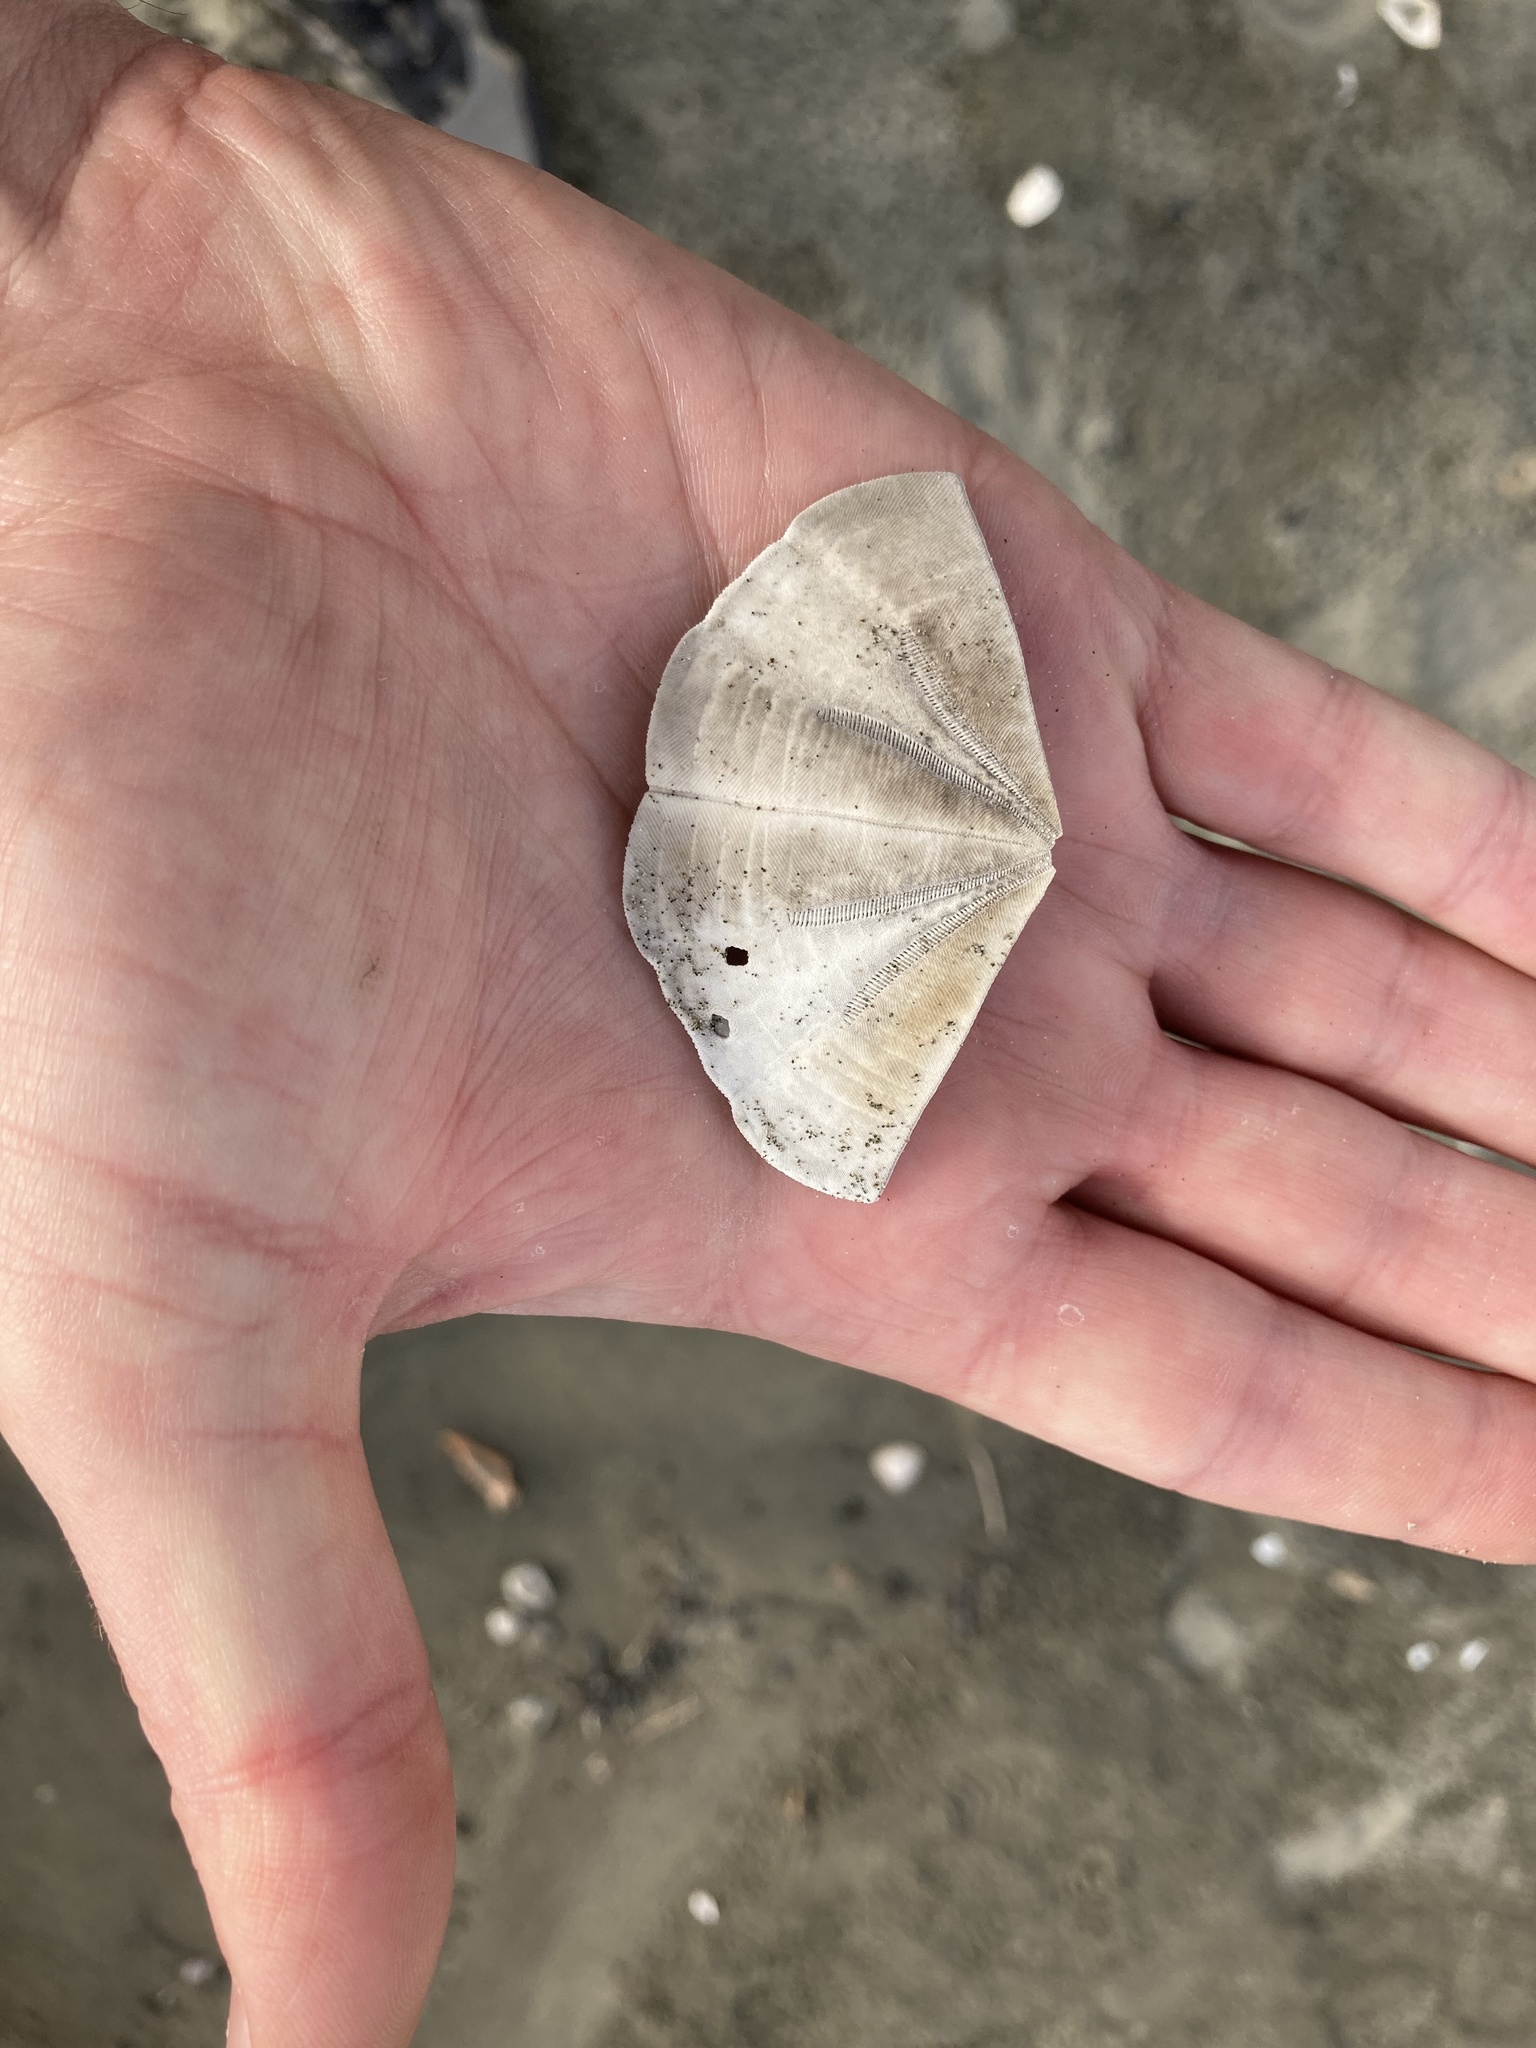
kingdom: Animalia
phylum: Echinodermata
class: Echinoidea
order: Clypeasteroida
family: Clypeasteridae
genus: Fellaster
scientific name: Fellaster zelandiae
